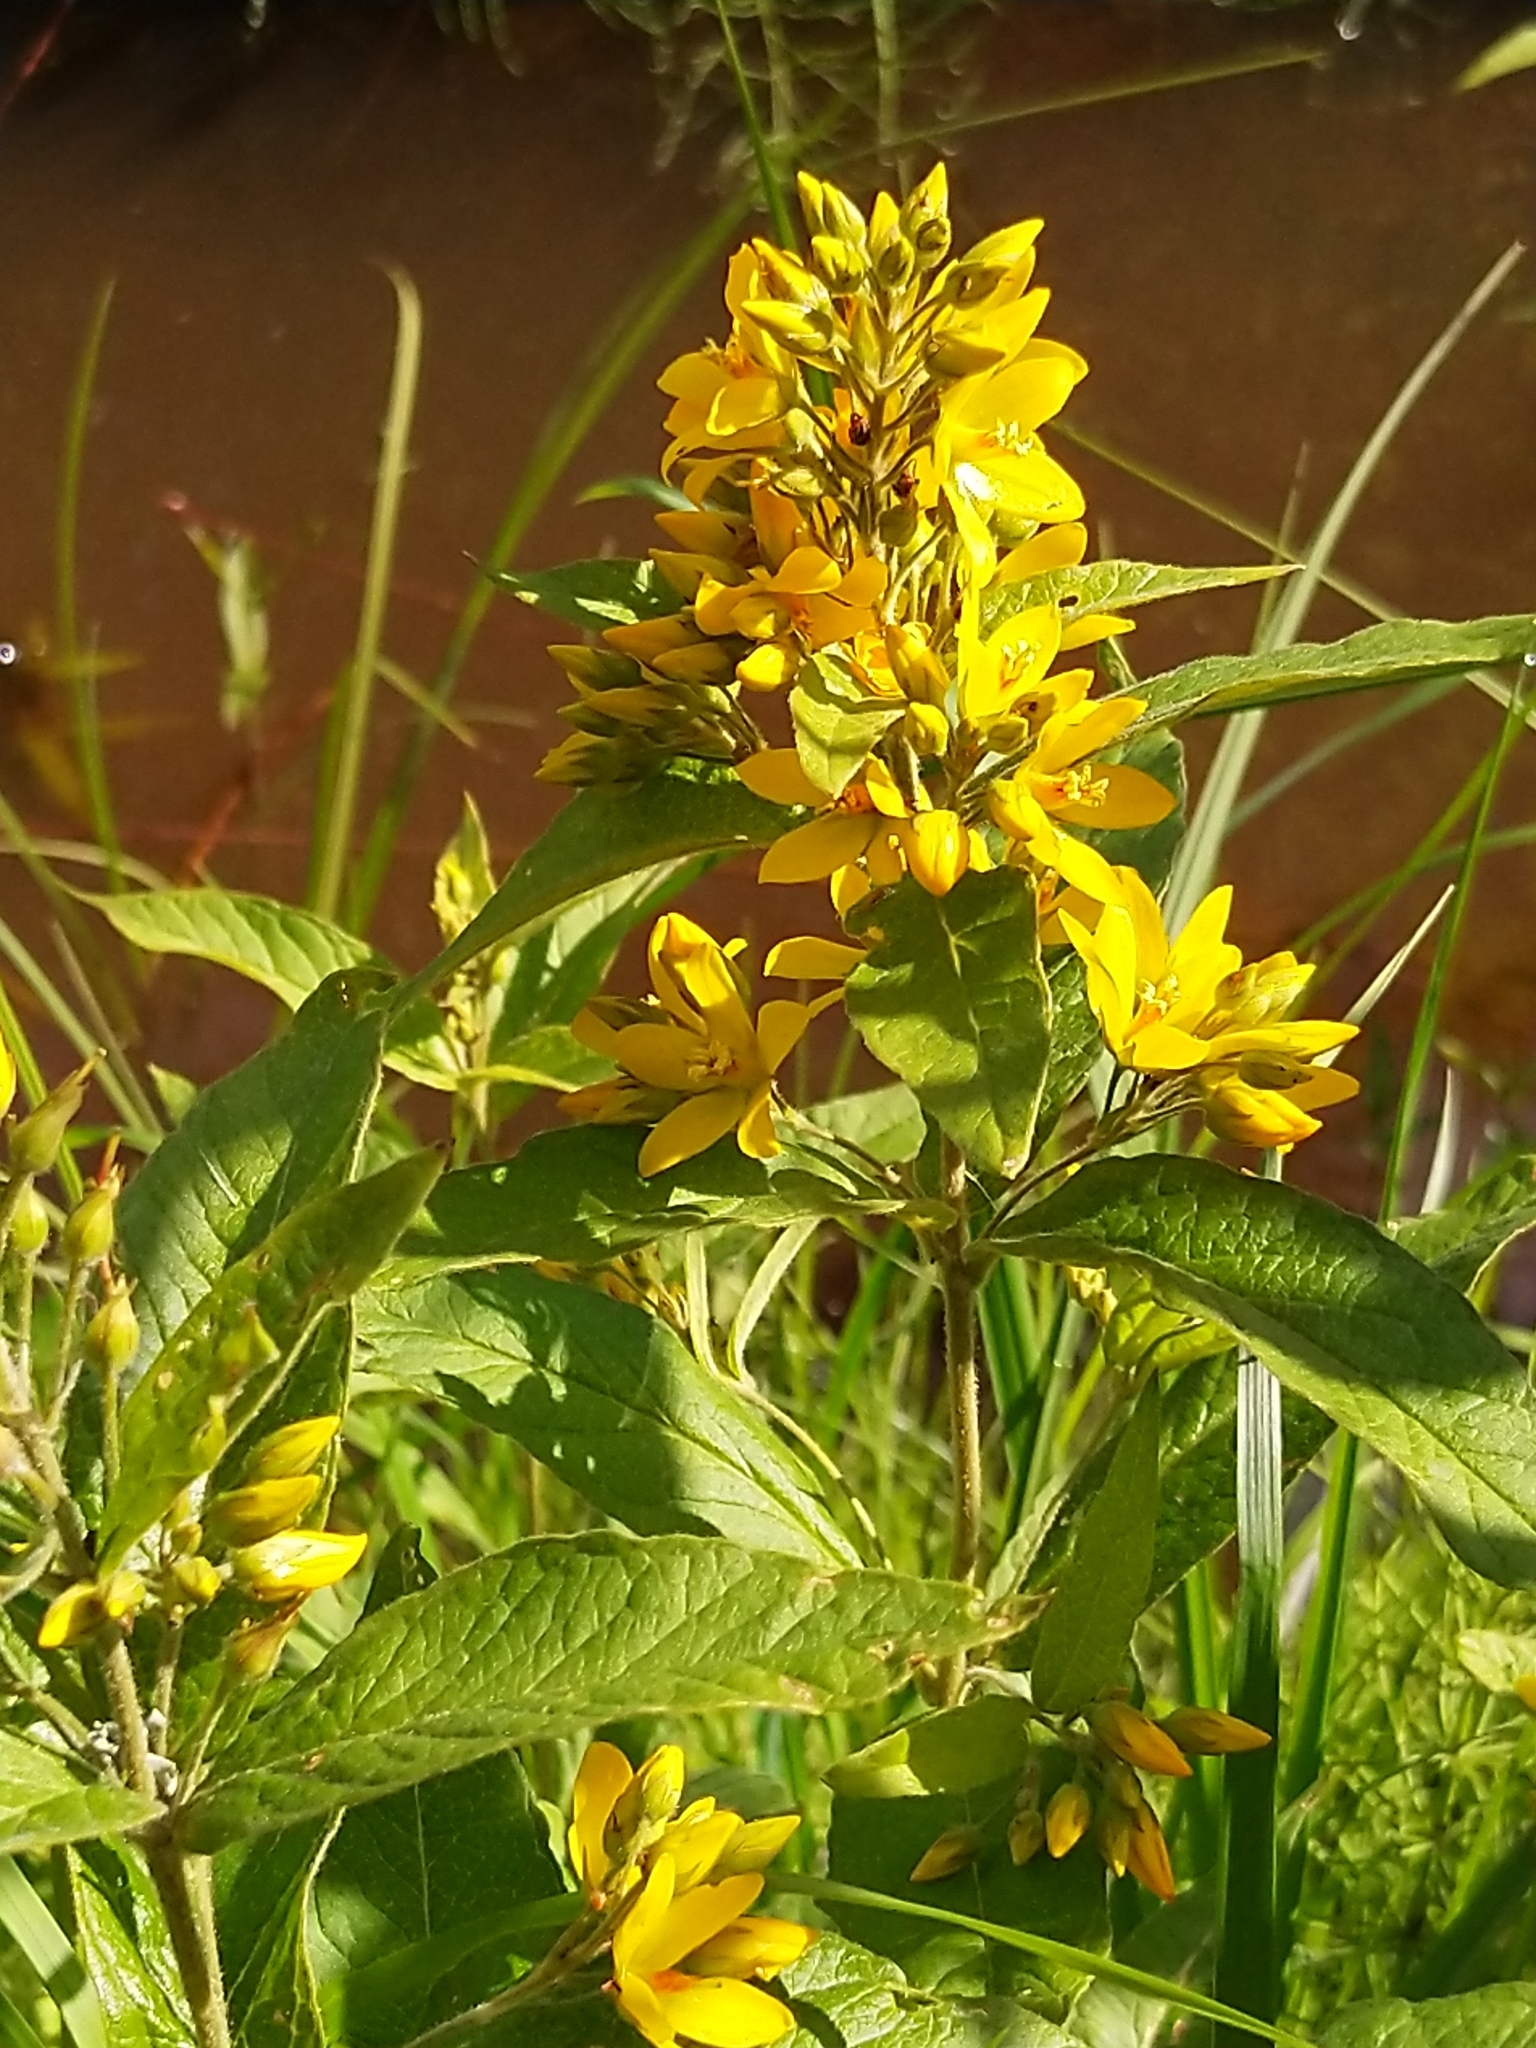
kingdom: Plantae
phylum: Tracheophyta
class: Magnoliopsida
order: Ericales
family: Primulaceae
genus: Lysimachia
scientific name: Lysimachia vulgaris
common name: Yellow loosestrife
